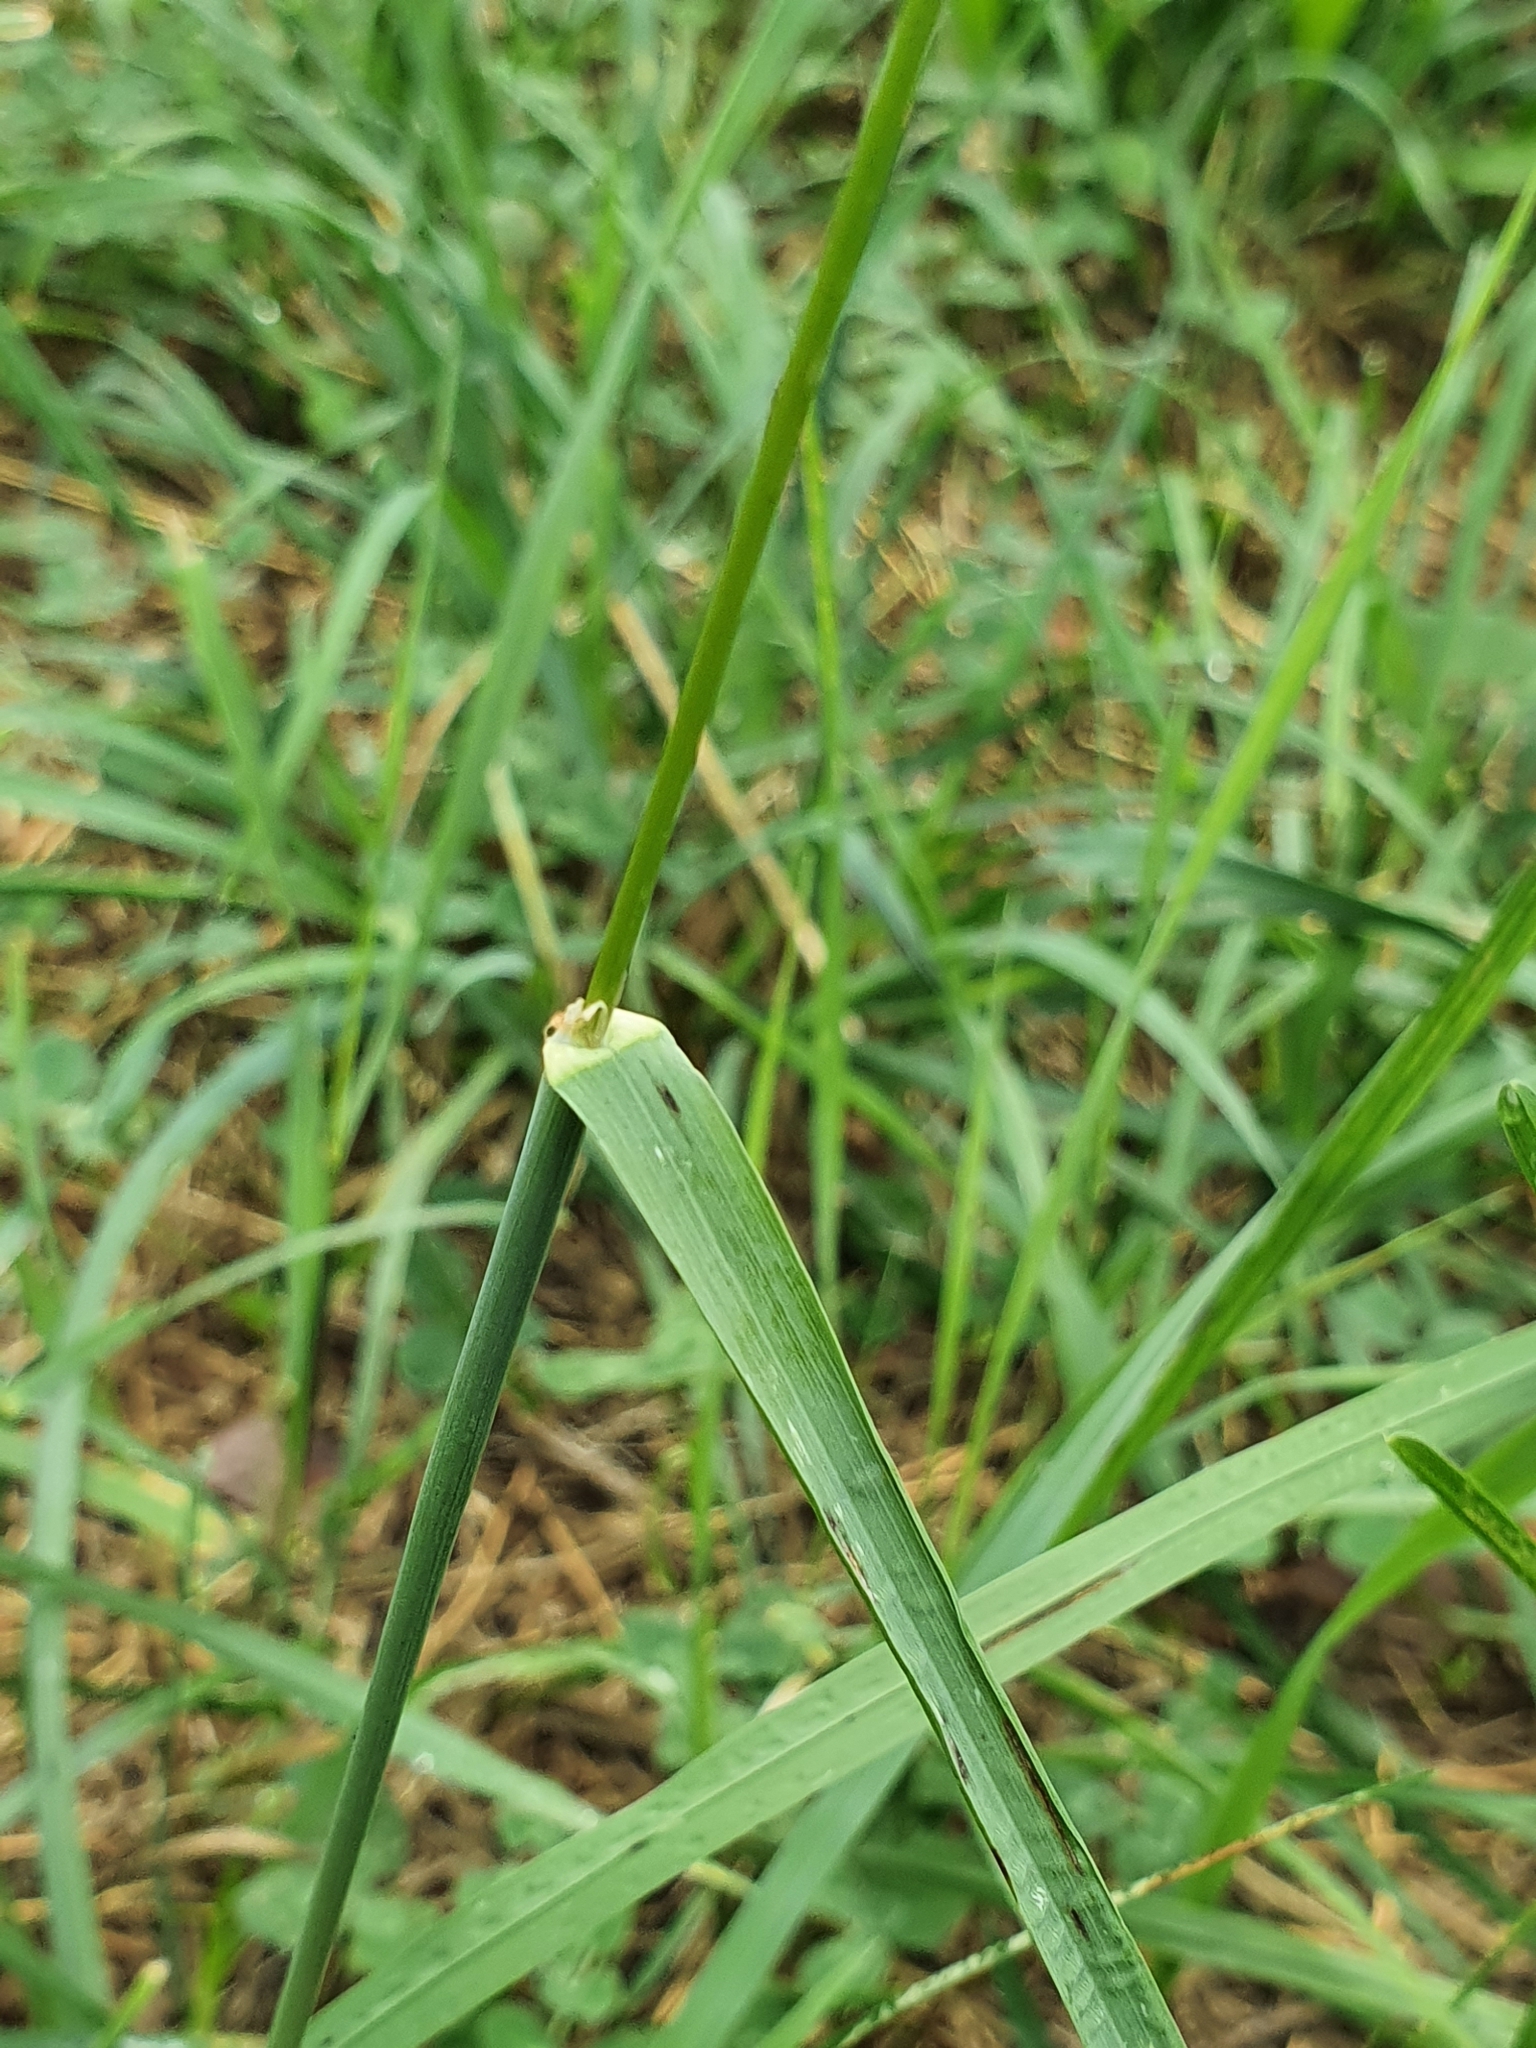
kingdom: Plantae
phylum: Tracheophyta
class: Liliopsida
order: Poales
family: Poaceae
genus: Dactylis
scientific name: Dactylis glomerata
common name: Orchardgrass
